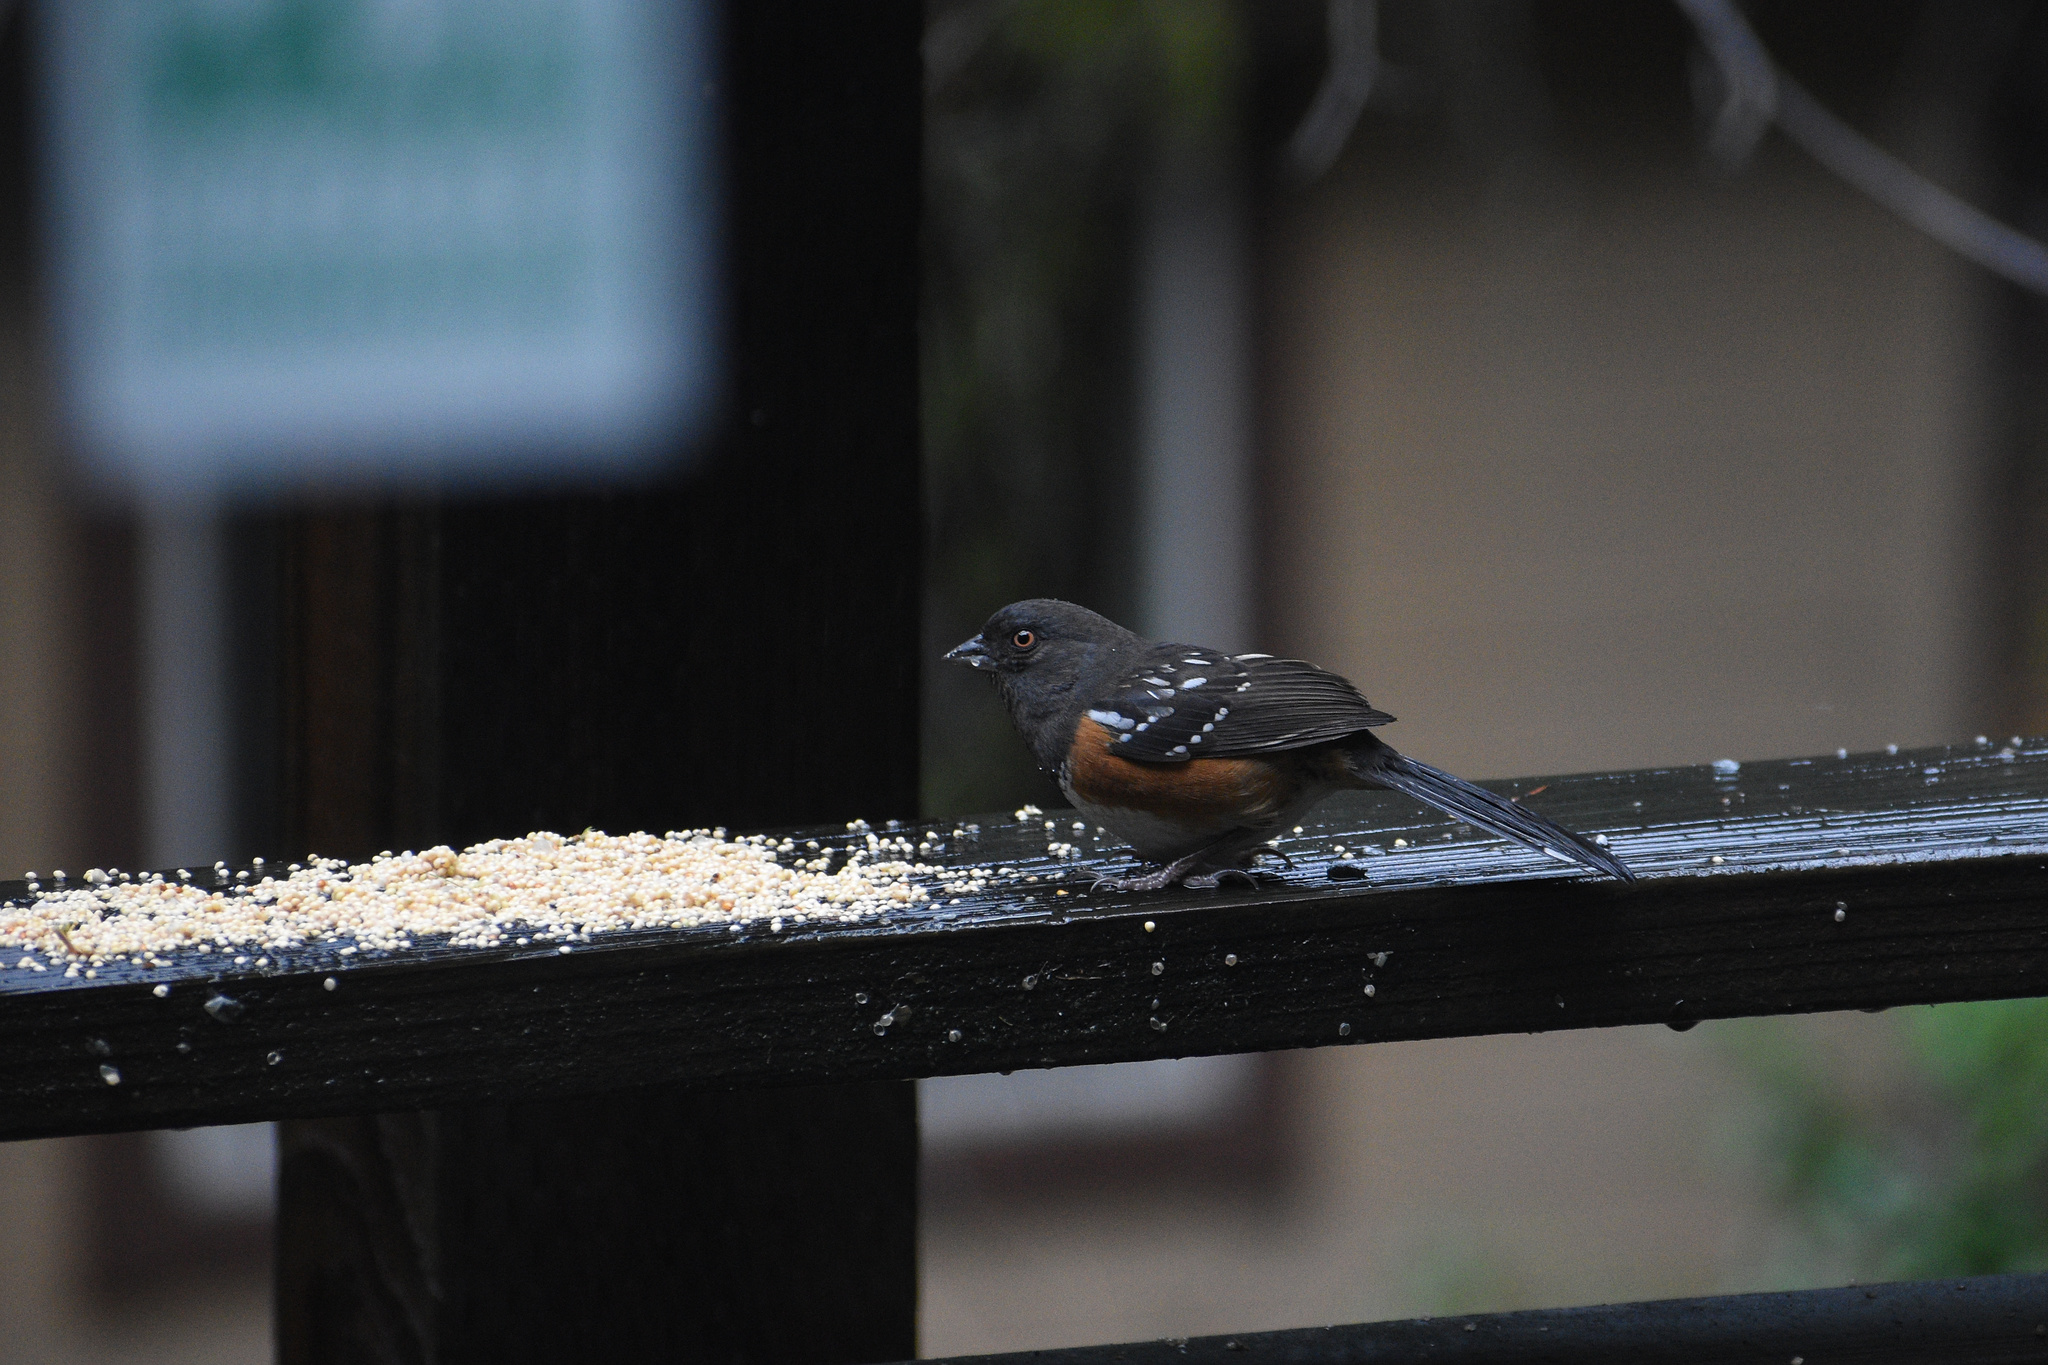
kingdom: Animalia
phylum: Chordata
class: Aves
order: Passeriformes
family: Passerellidae
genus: Pipilo
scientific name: Pipilo maculatus
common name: Spotted towhee
